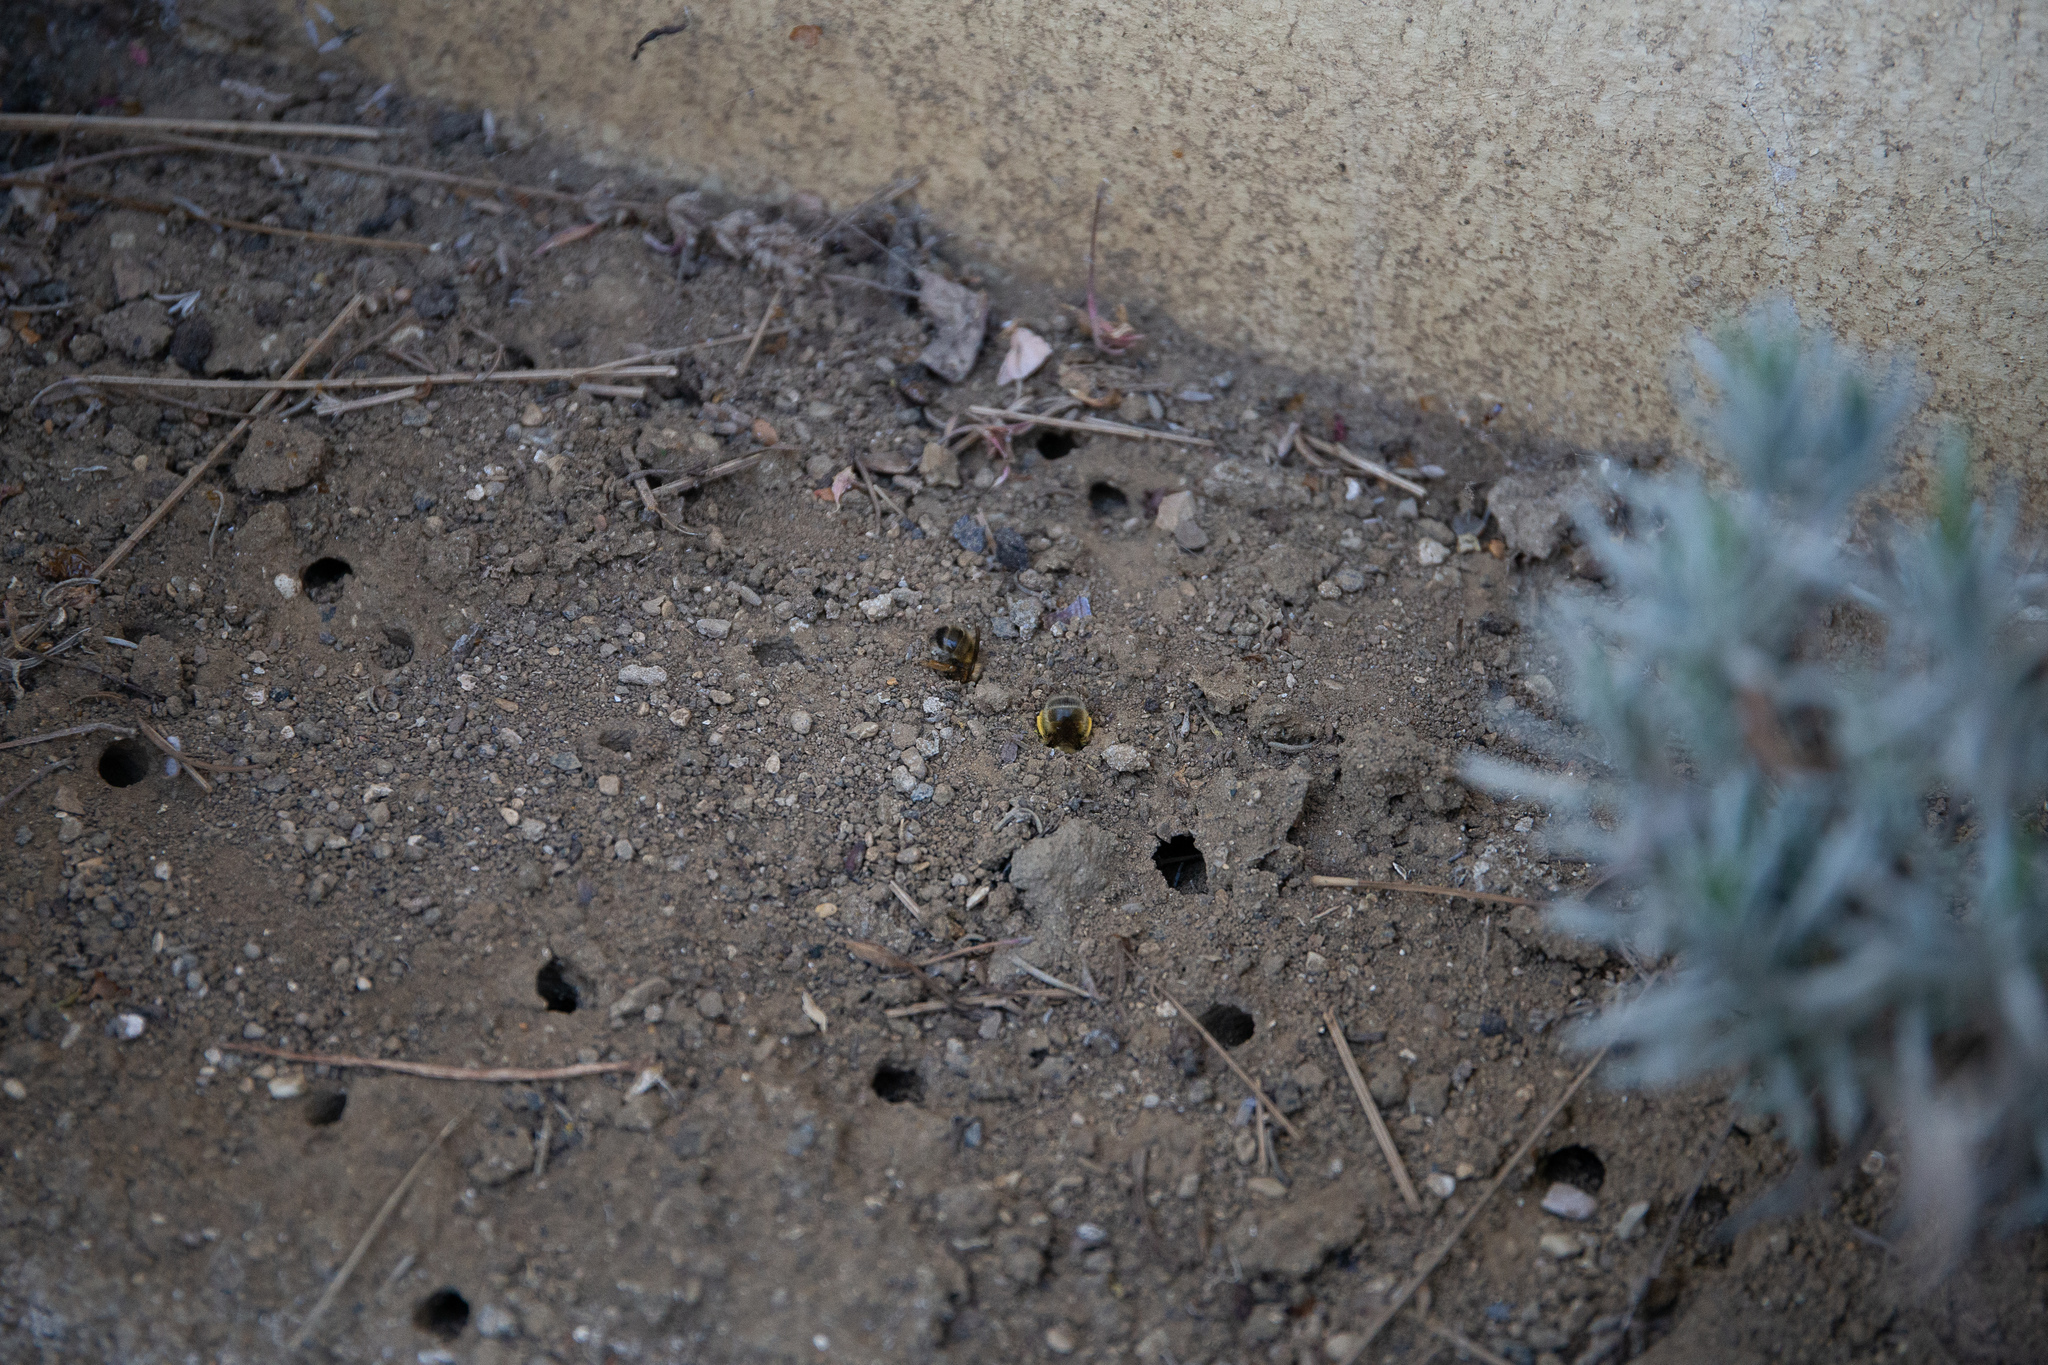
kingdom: Animalia
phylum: Arthropoda
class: Insecta
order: Hymenoptera
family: Apidae
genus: Anthophora
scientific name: Anthophora plumipes
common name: Hairy-footed flower bee
